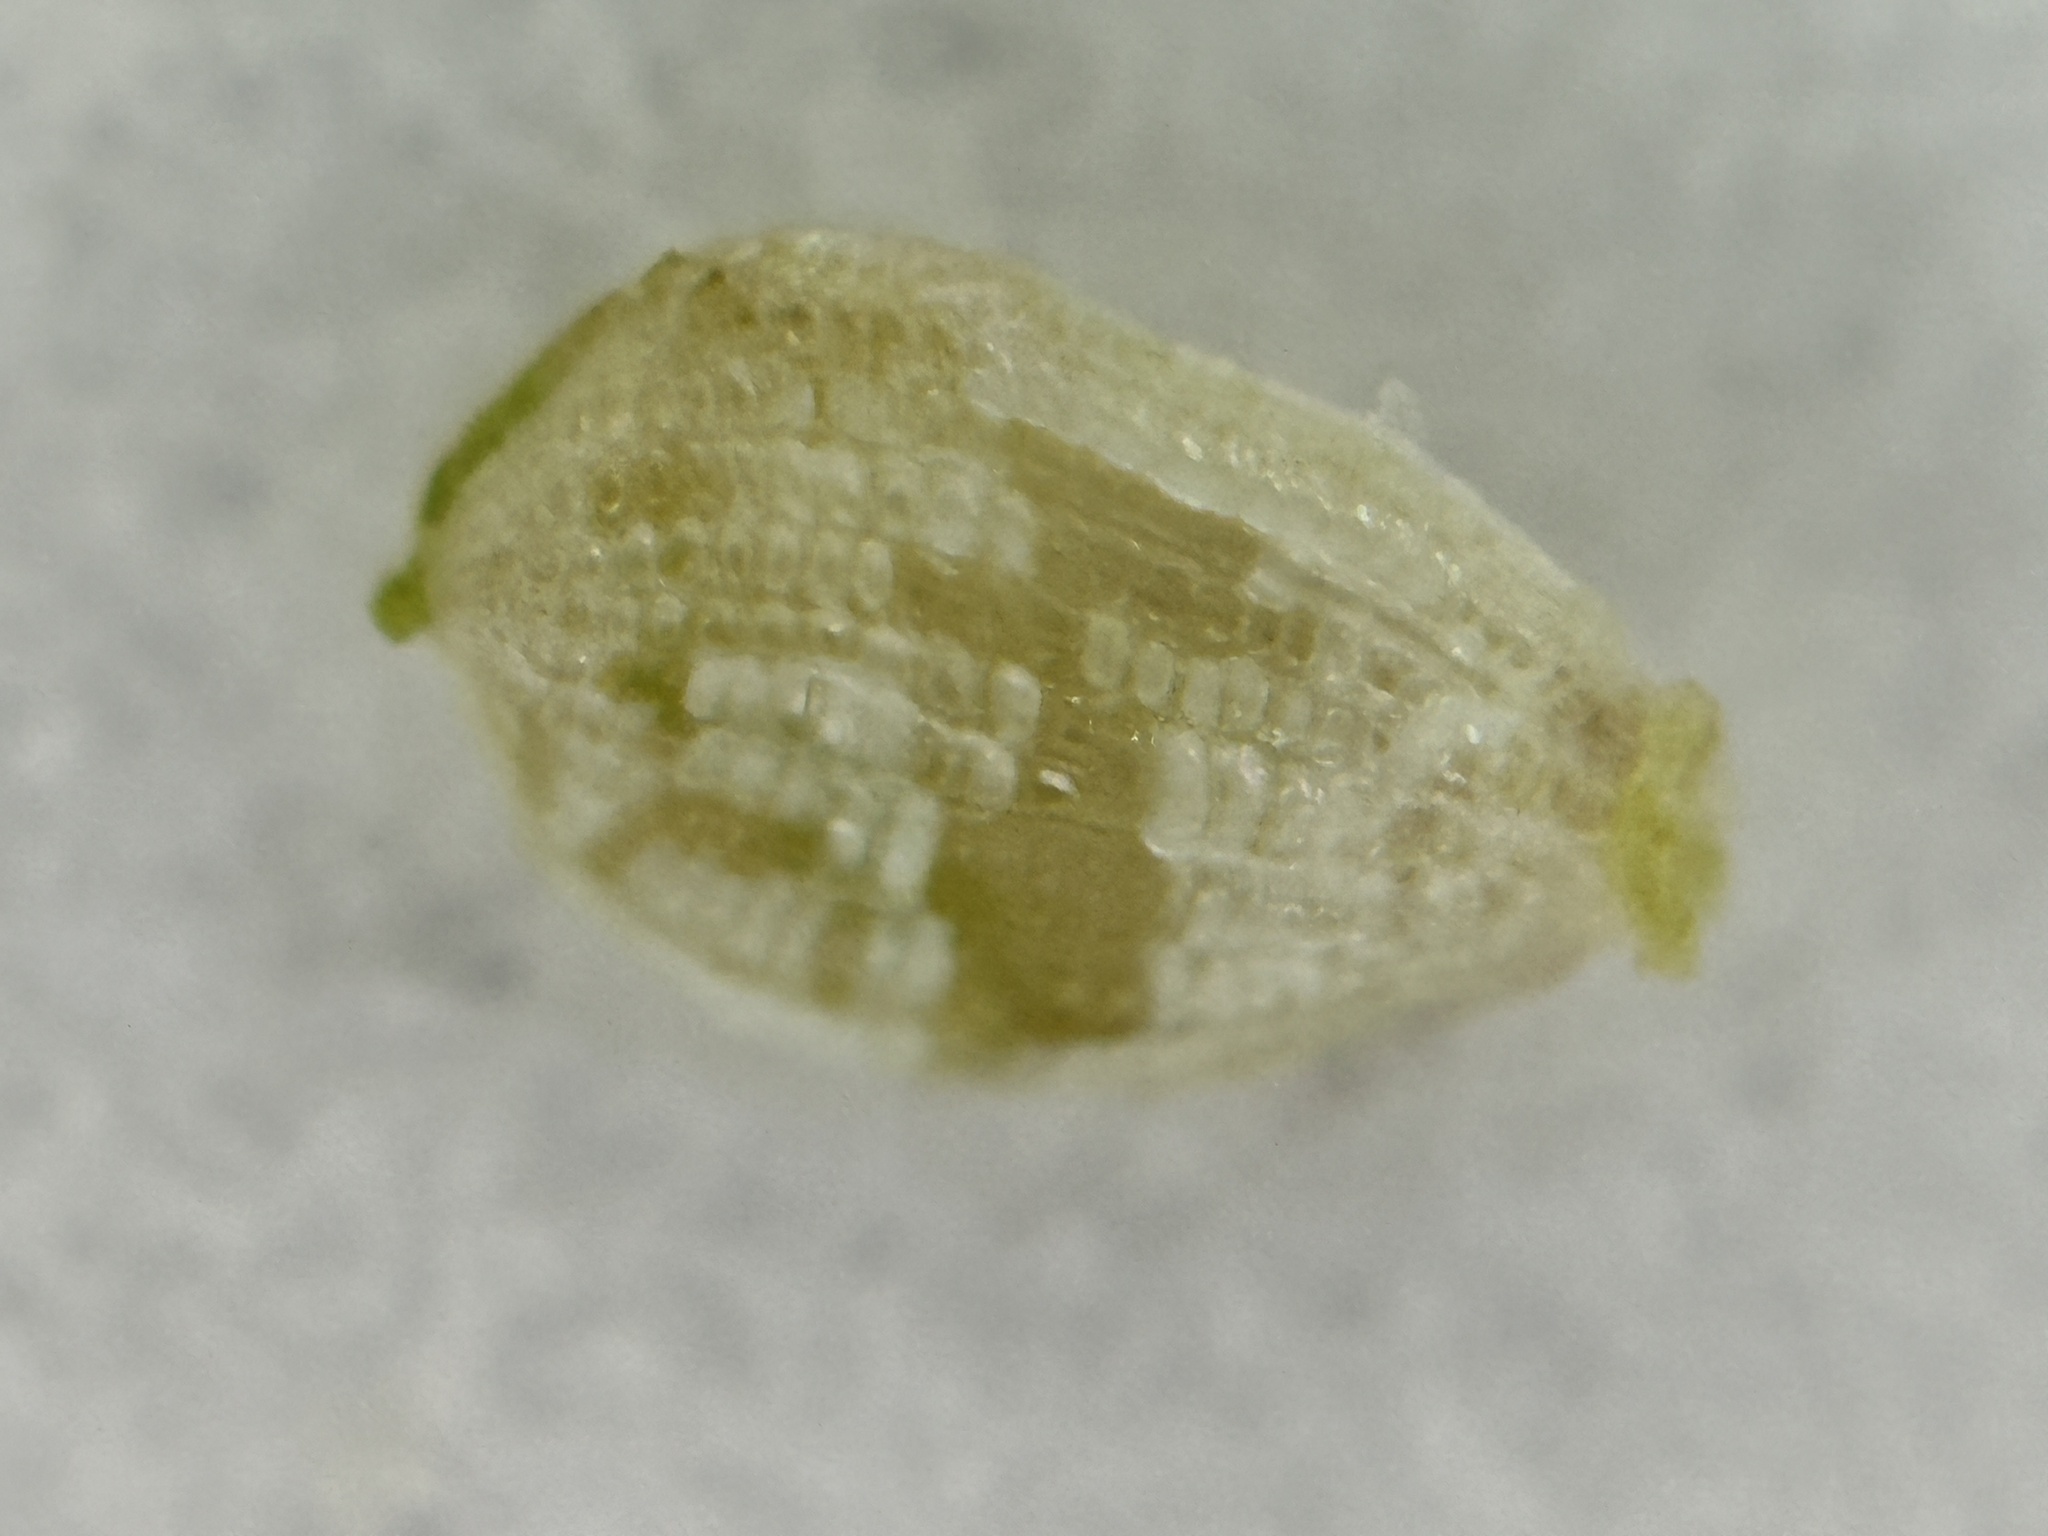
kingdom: Plantae
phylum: Tracheophyta
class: Liliopsida
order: Poales
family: Cyperaceae
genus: Fimbristylis
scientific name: Fimbristylis dichotoma
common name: Forked fimbry
